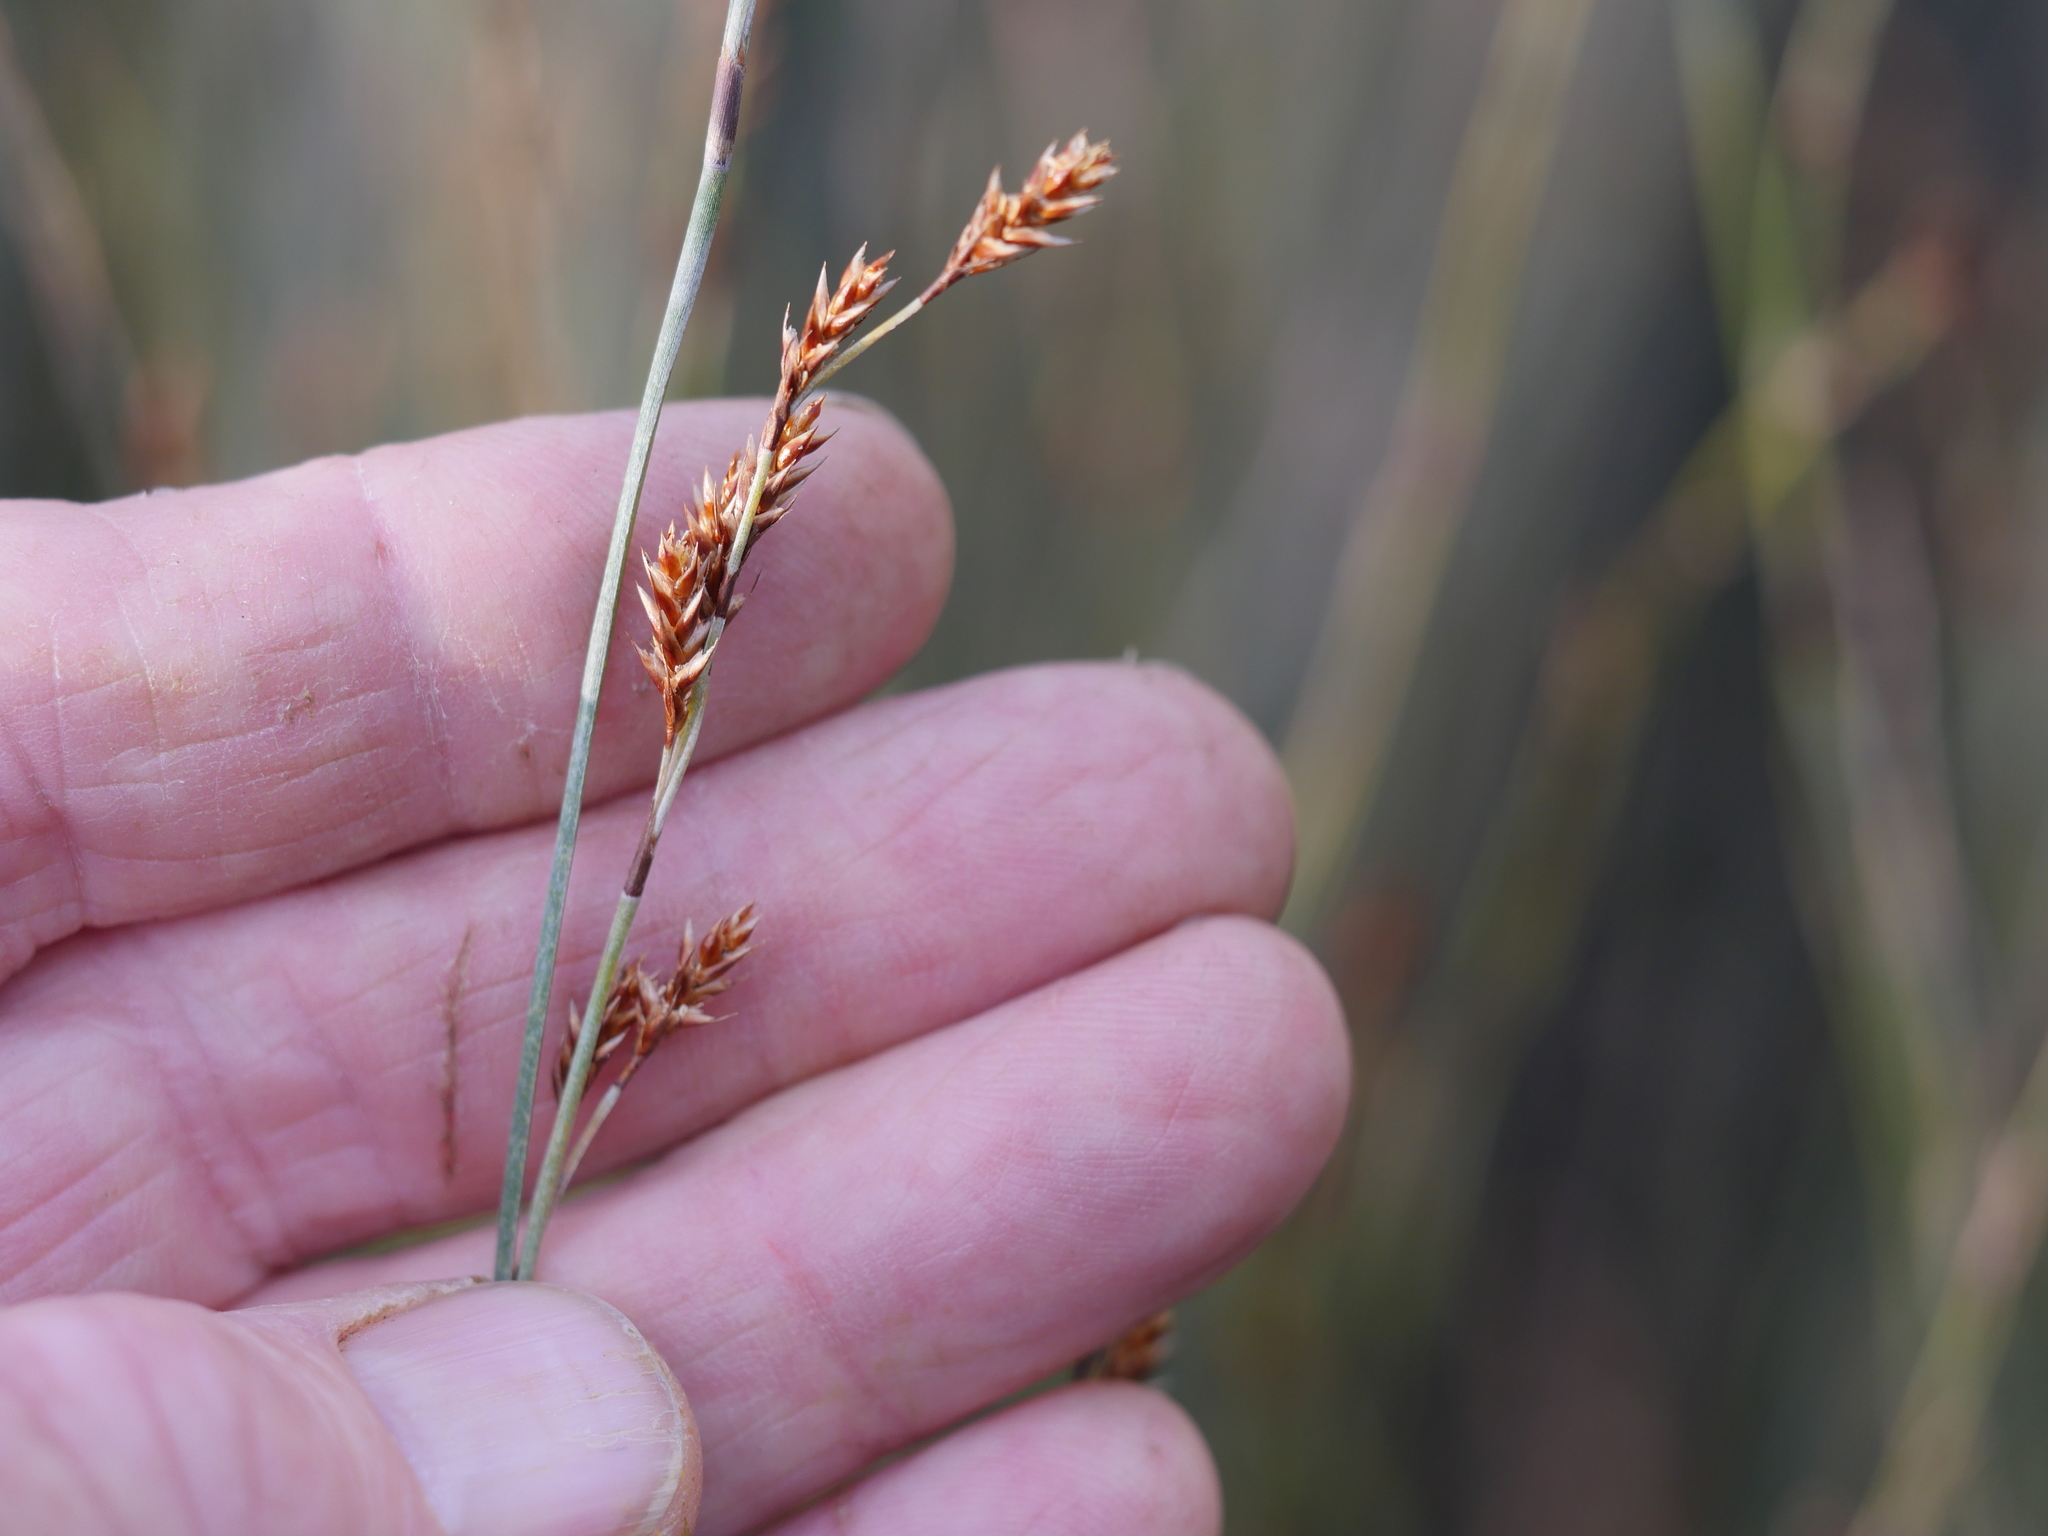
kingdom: Plantae
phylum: Tracheophyta
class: Liliopsida
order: Poales
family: Restionaceae
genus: Apodasmia
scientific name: Apodasmia similis
